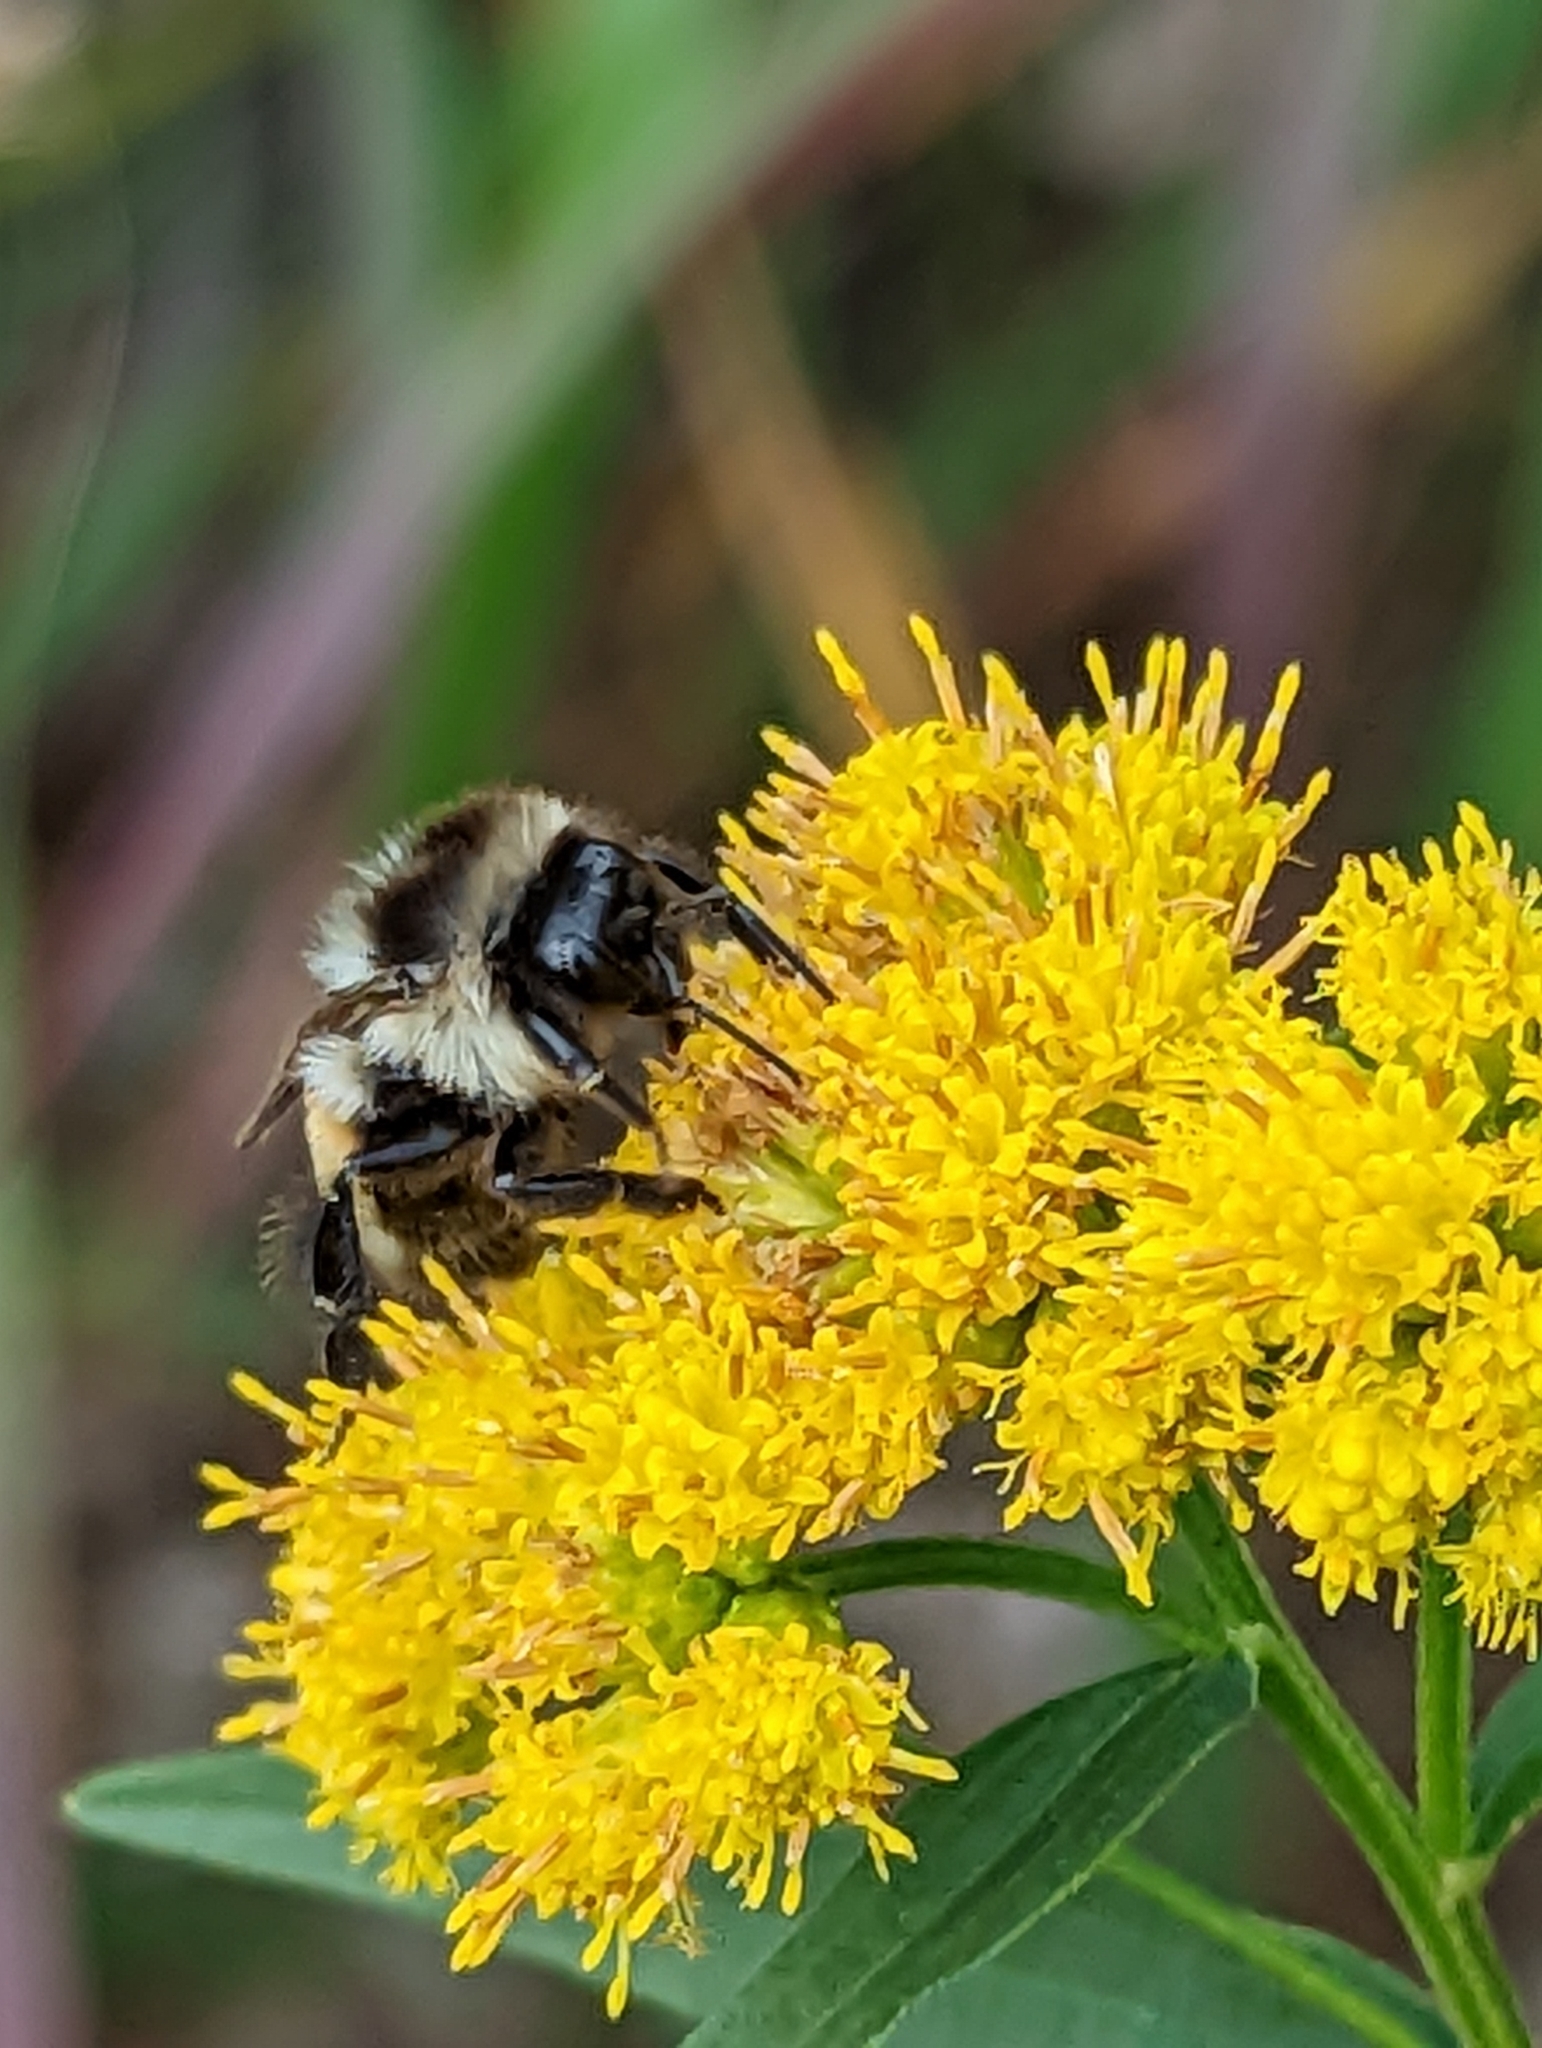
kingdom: Animalia
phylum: Arthropoda
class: Insecta
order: Hymenoptera
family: Apidae
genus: Bombus
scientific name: Bombus ternarius
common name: Tri-colored bumble bee
